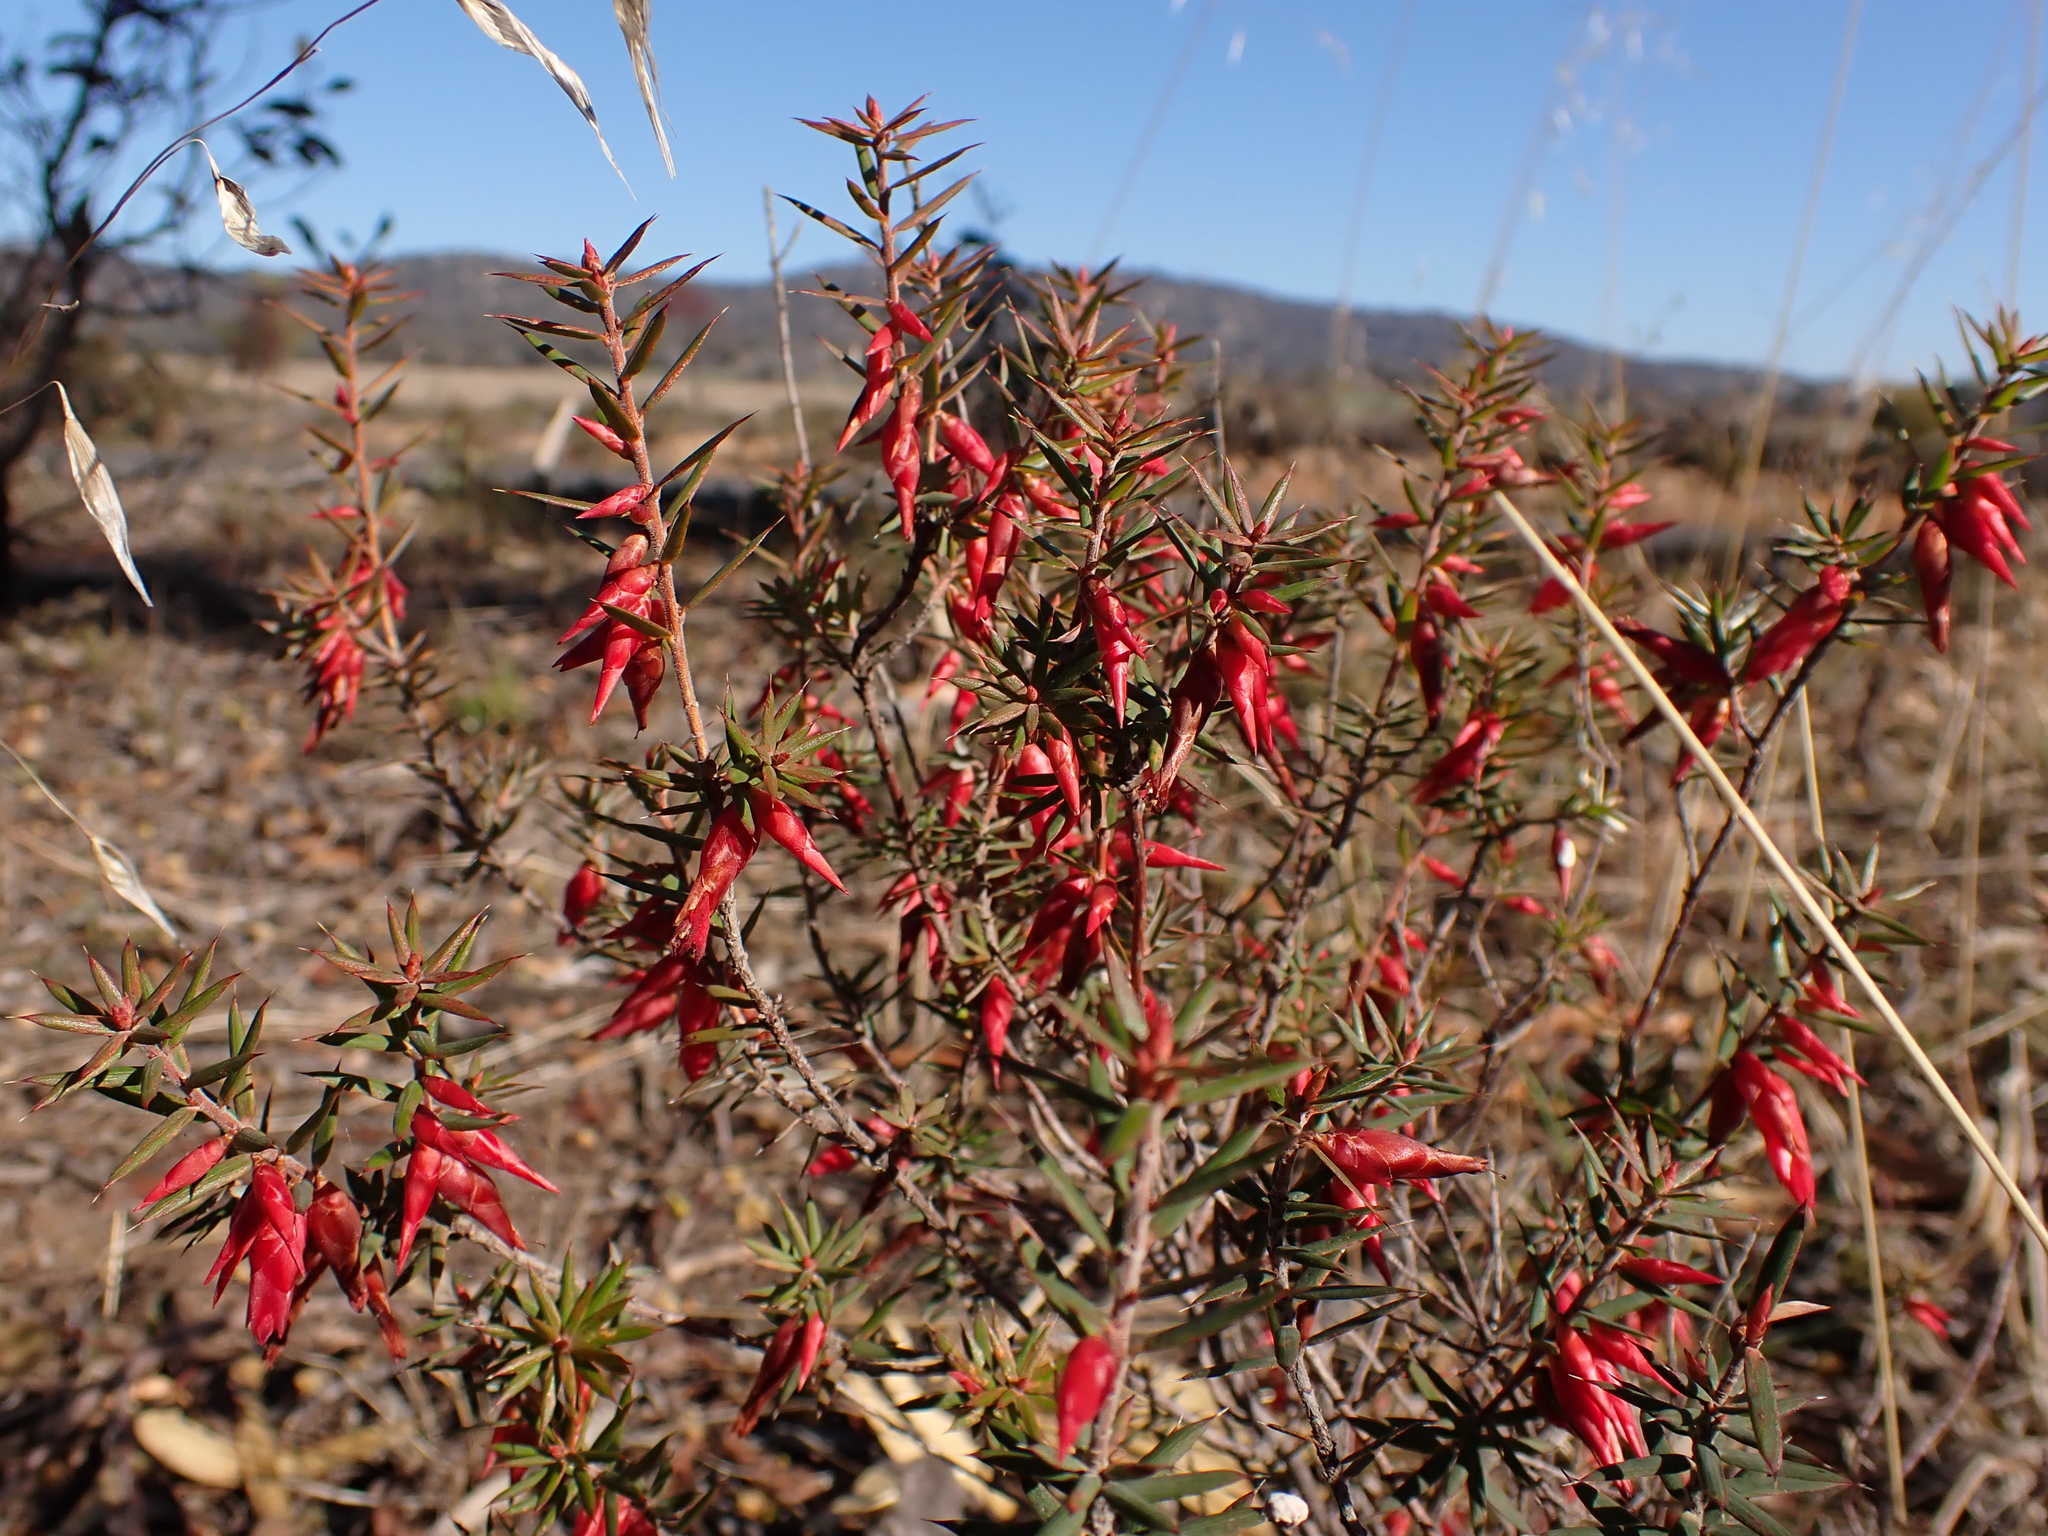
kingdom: Plantae
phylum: Tracheophyta
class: Magnoliopsida
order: Ericales
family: Ericaceae
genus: Stenanthera
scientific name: Stenanthera conostephioides
